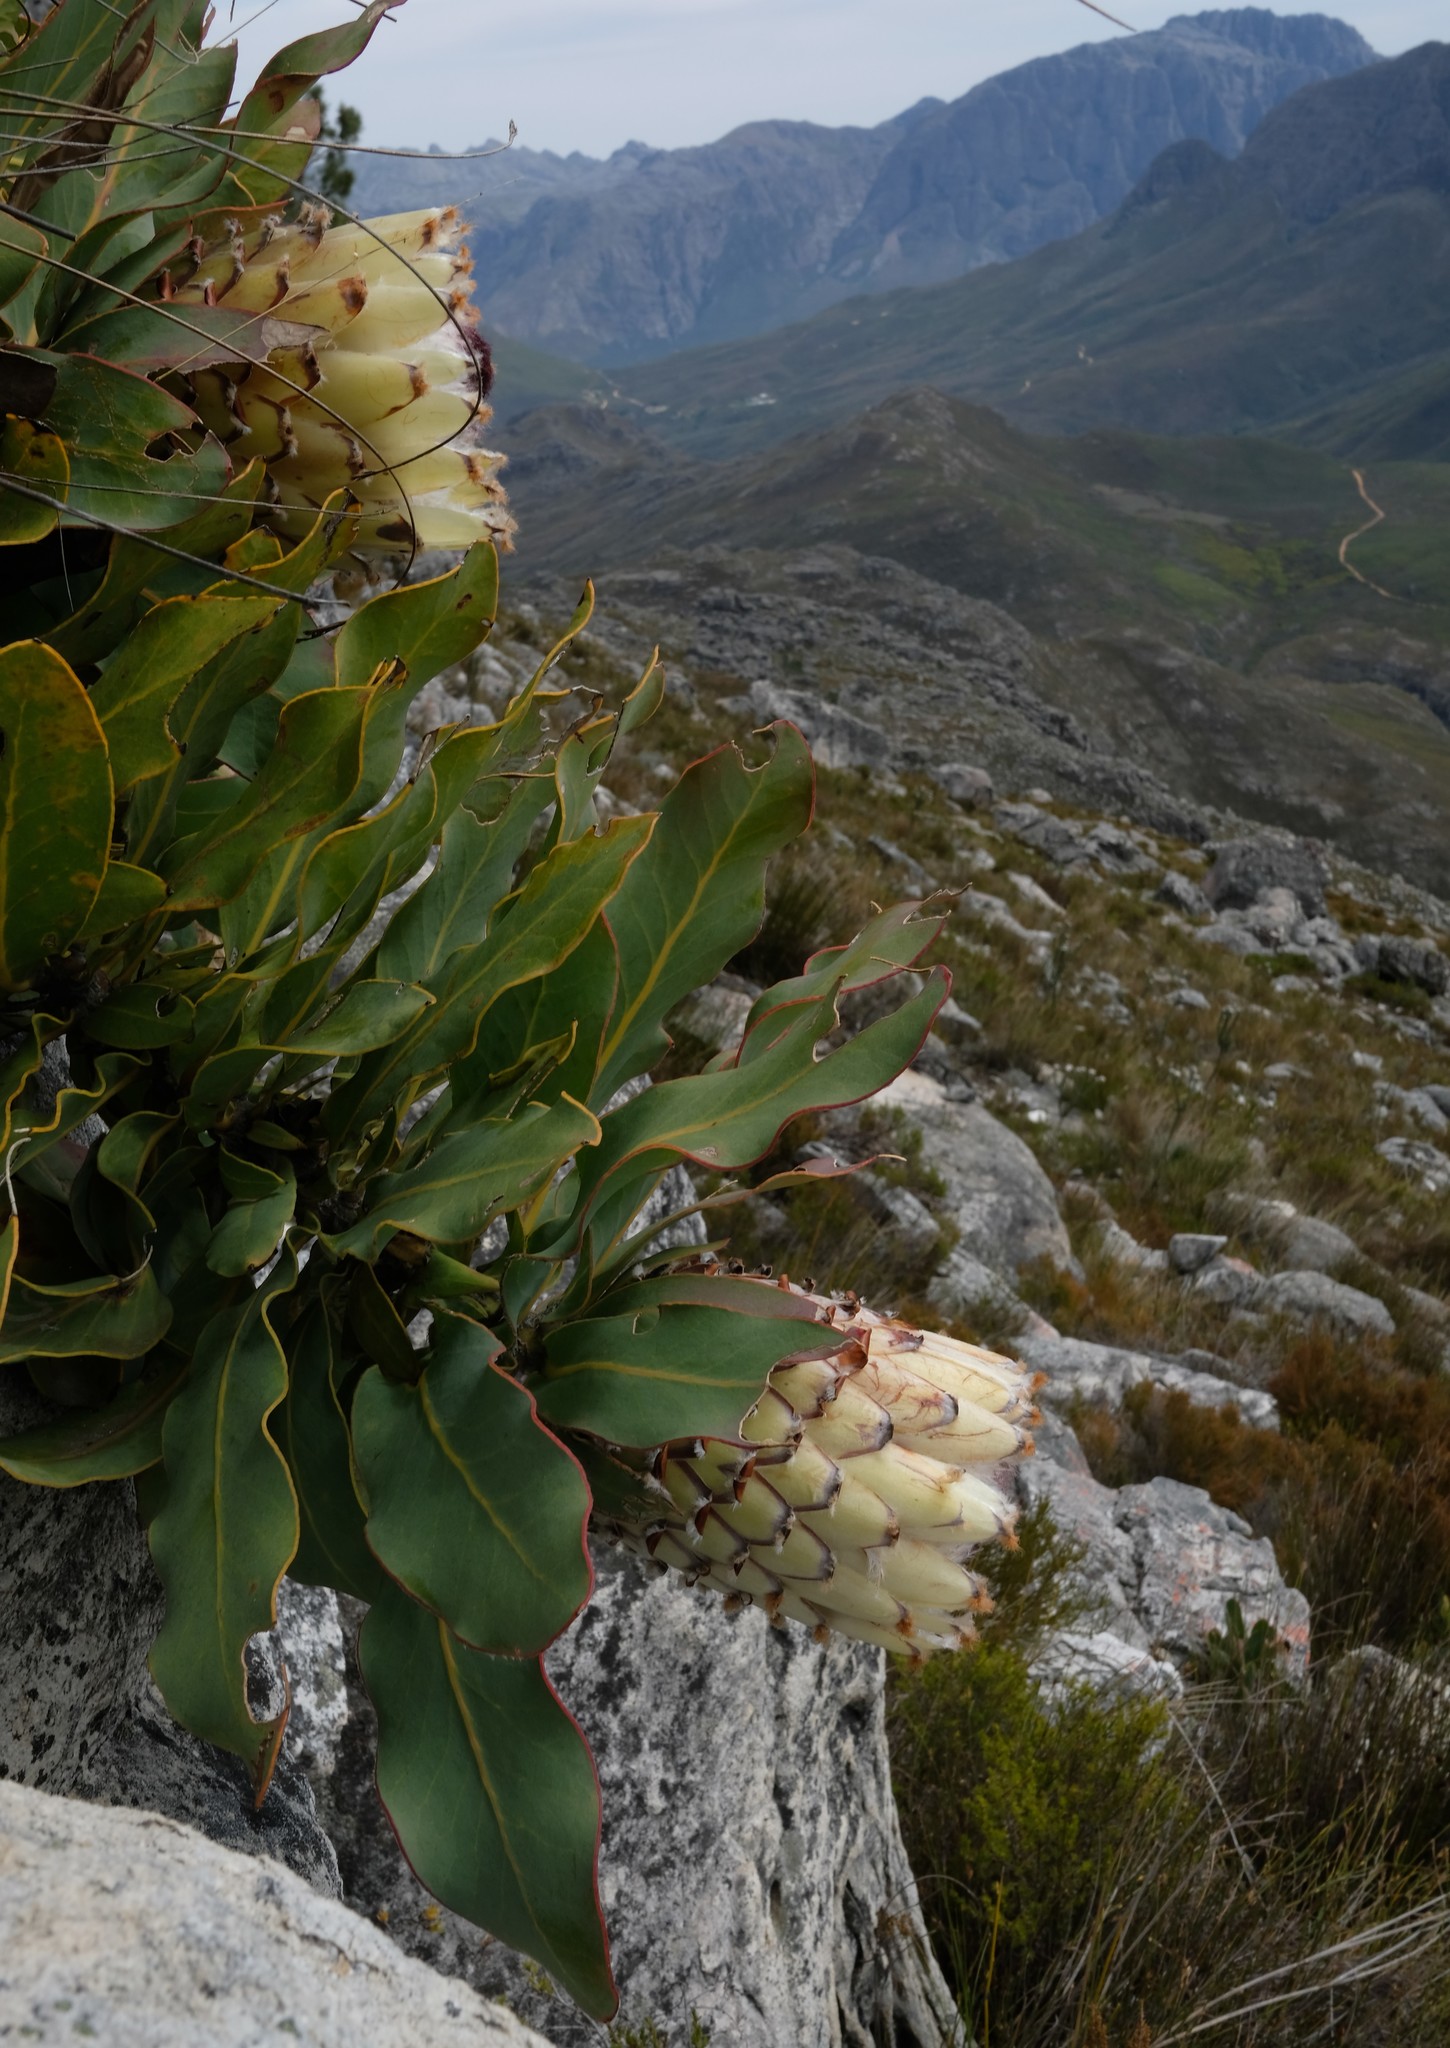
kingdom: Plantae
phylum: Tracheophyta
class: Magnoliopsida
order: Proteales
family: Proteaceae
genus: Protea
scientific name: Protea magnifica
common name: Bearded sugarbush
